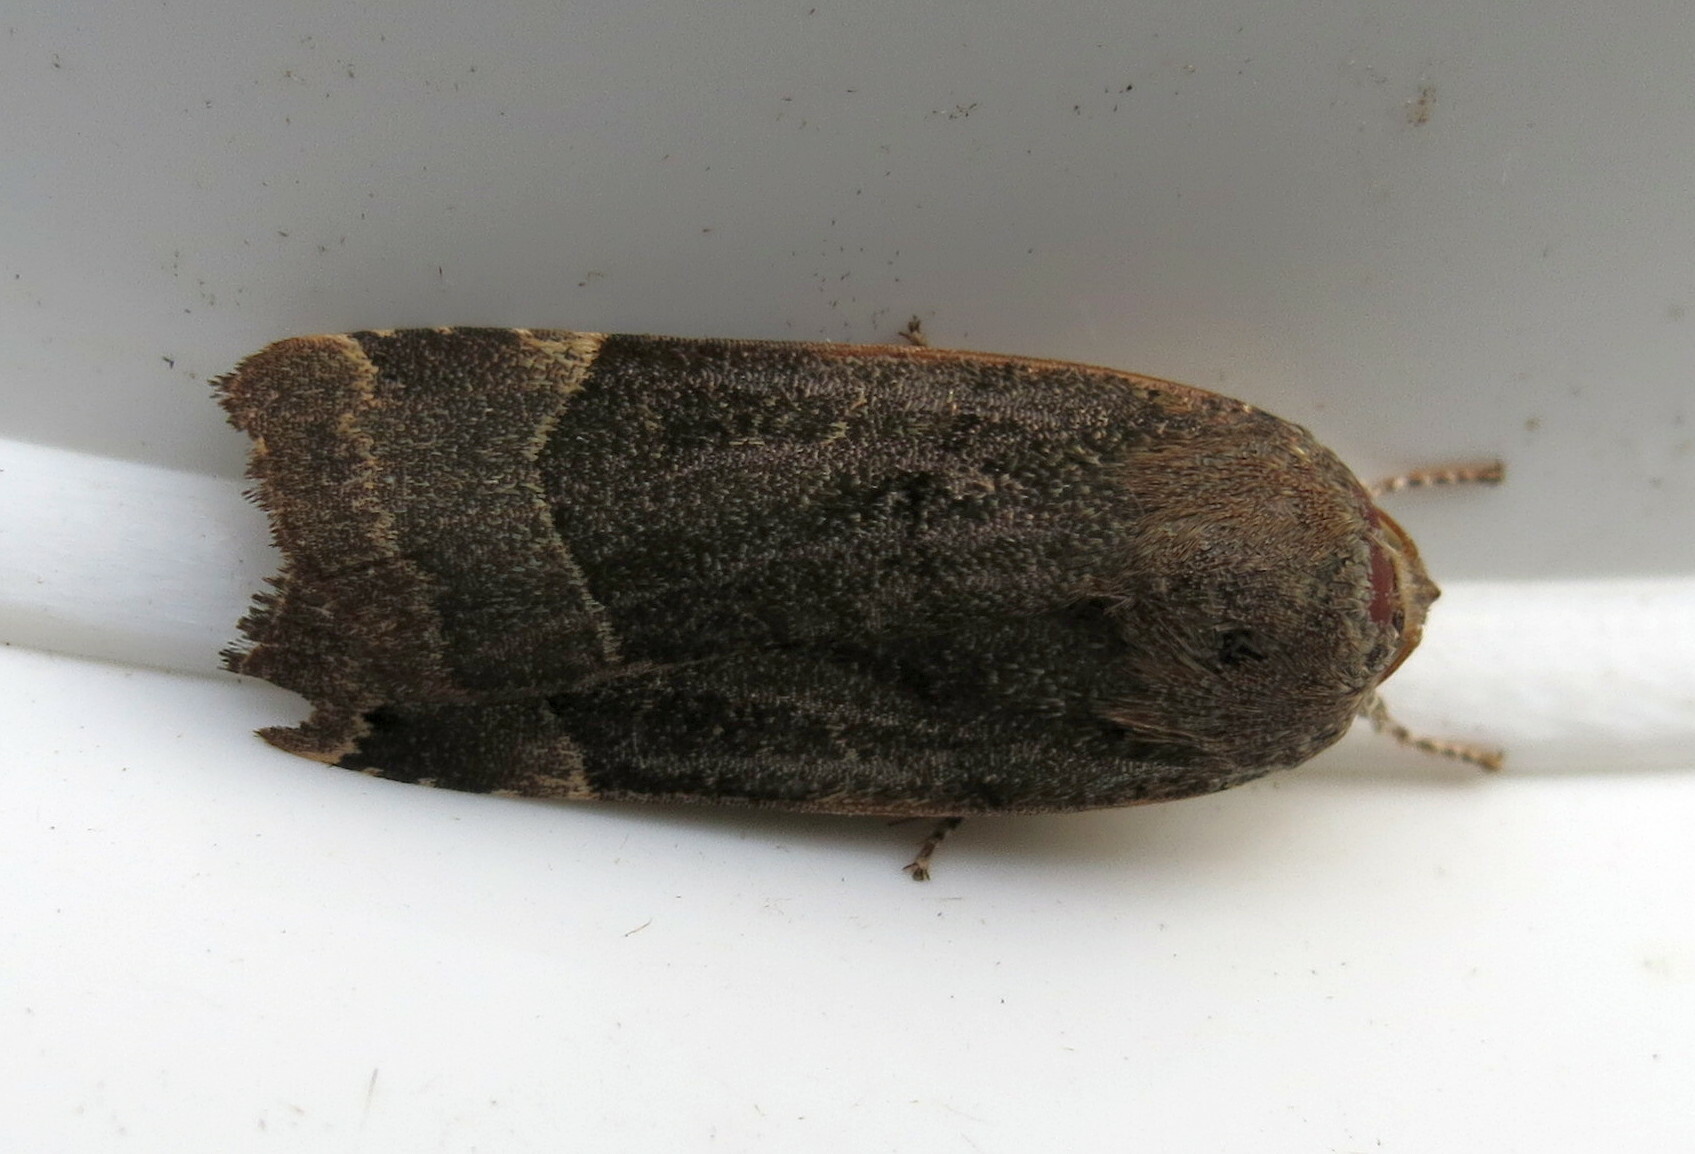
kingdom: Animalia
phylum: Arthropoda
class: Insecta
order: Lepidoptera
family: Noctuidae
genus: Noctua
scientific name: Noctua fimbriata
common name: Broad-bordered yellow underwing
